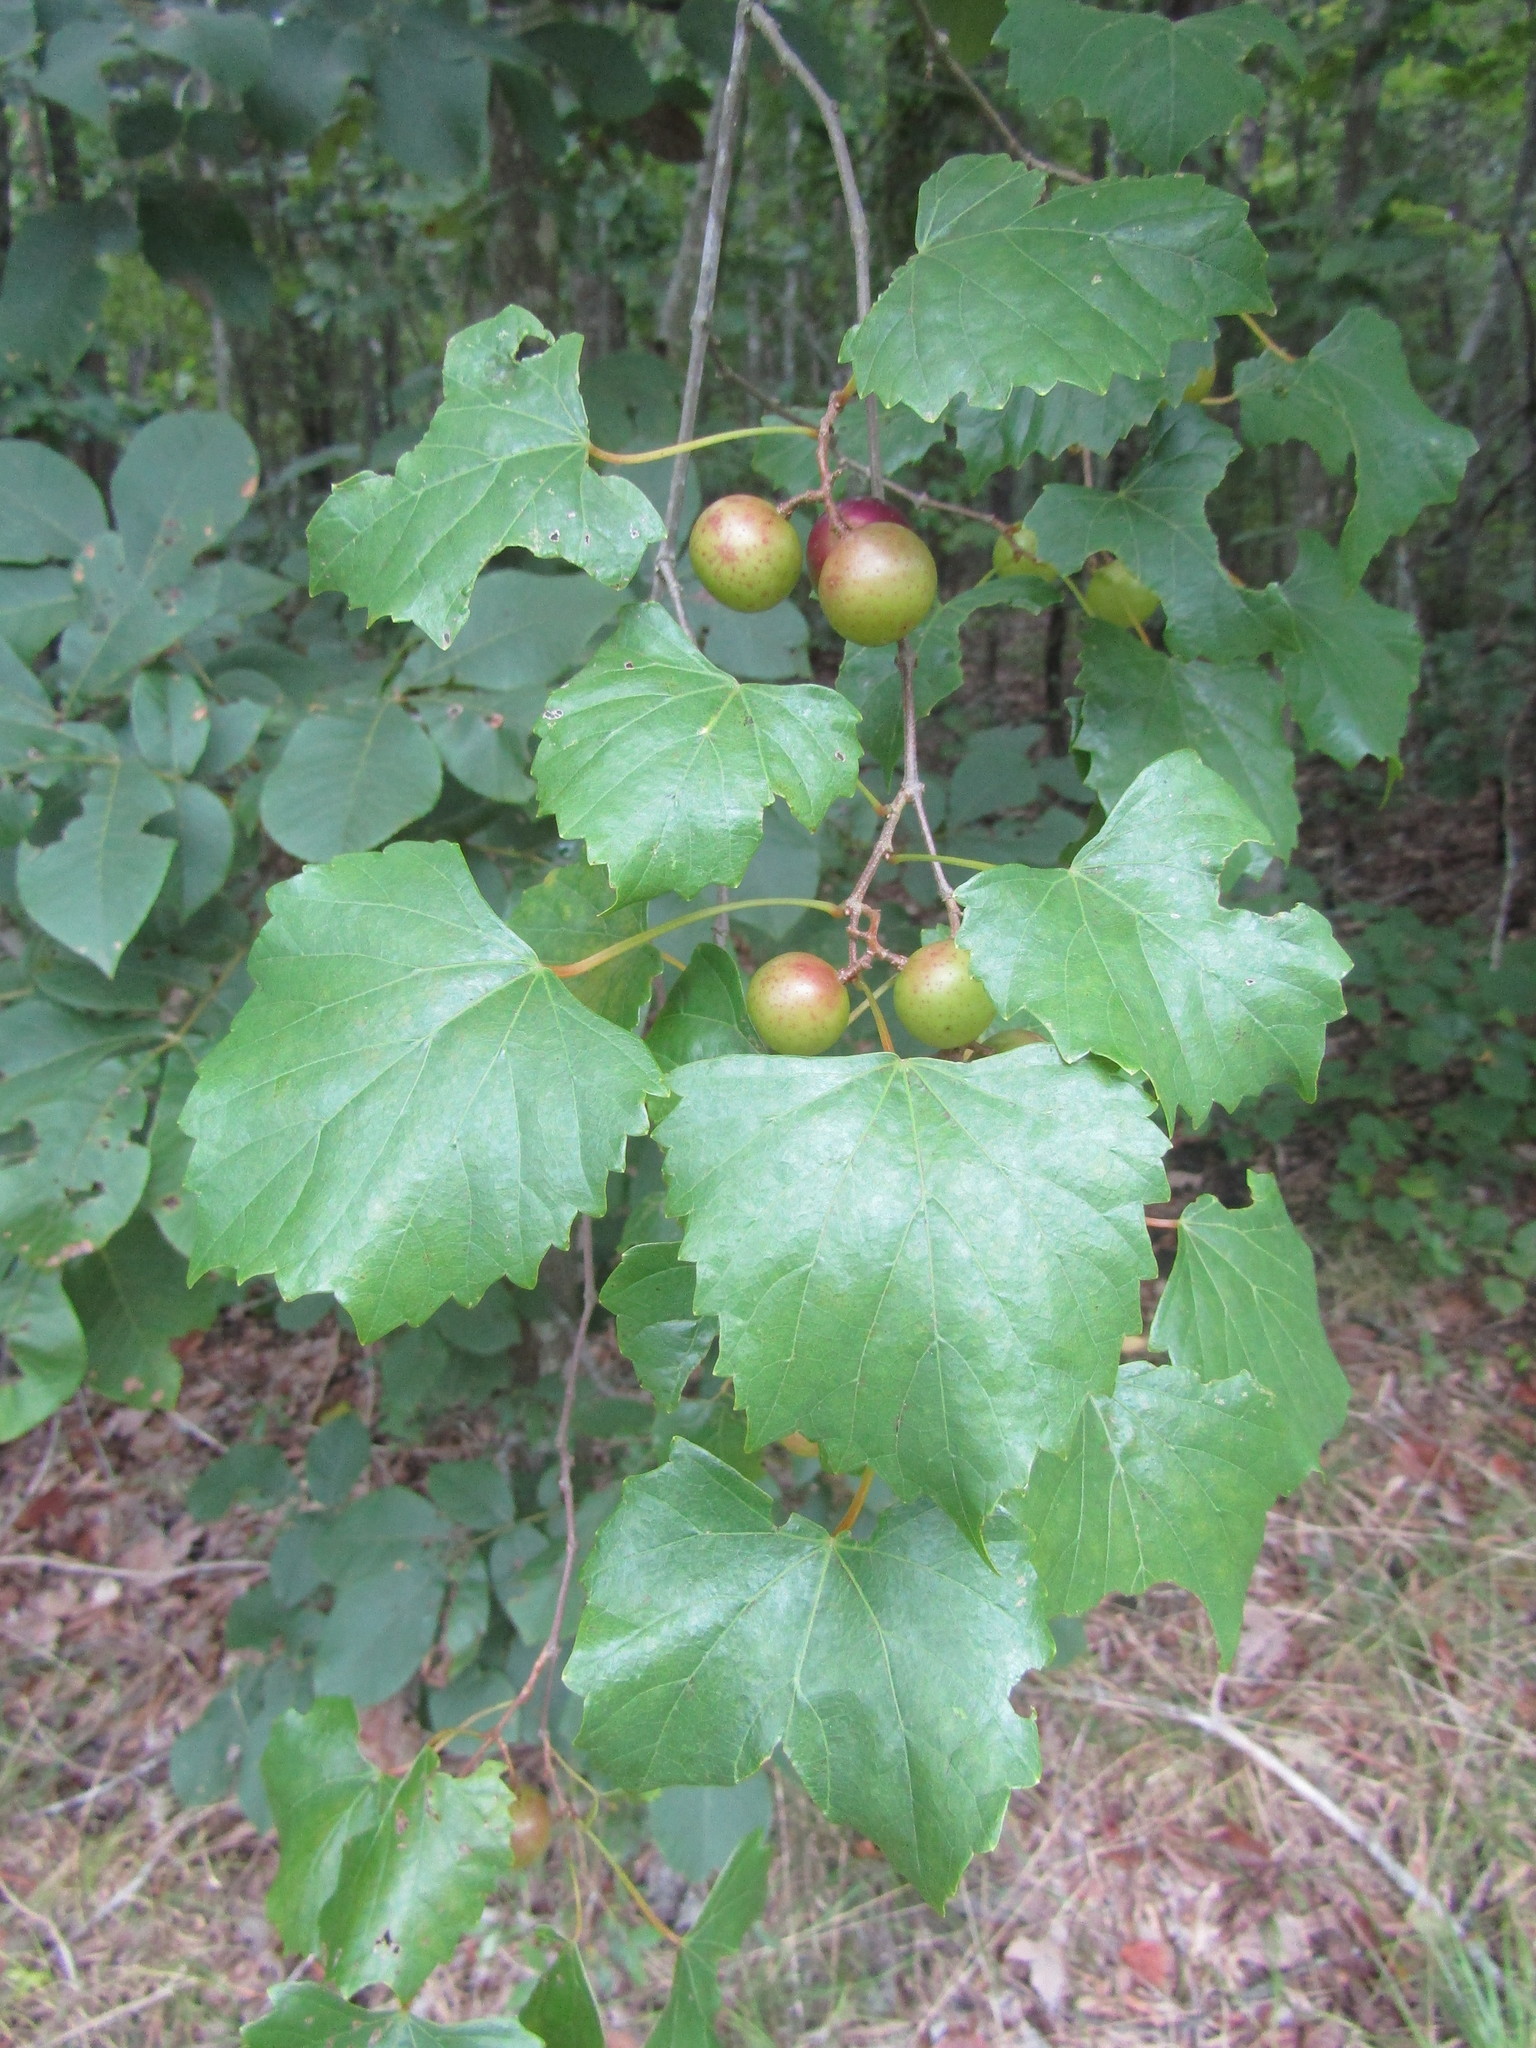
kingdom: Plantae
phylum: Tracheophyta
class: Magnoliopsida
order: Vitales
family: Vitaceae
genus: Vitis
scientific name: Vitis rotundifolia
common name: Muscadine grape
